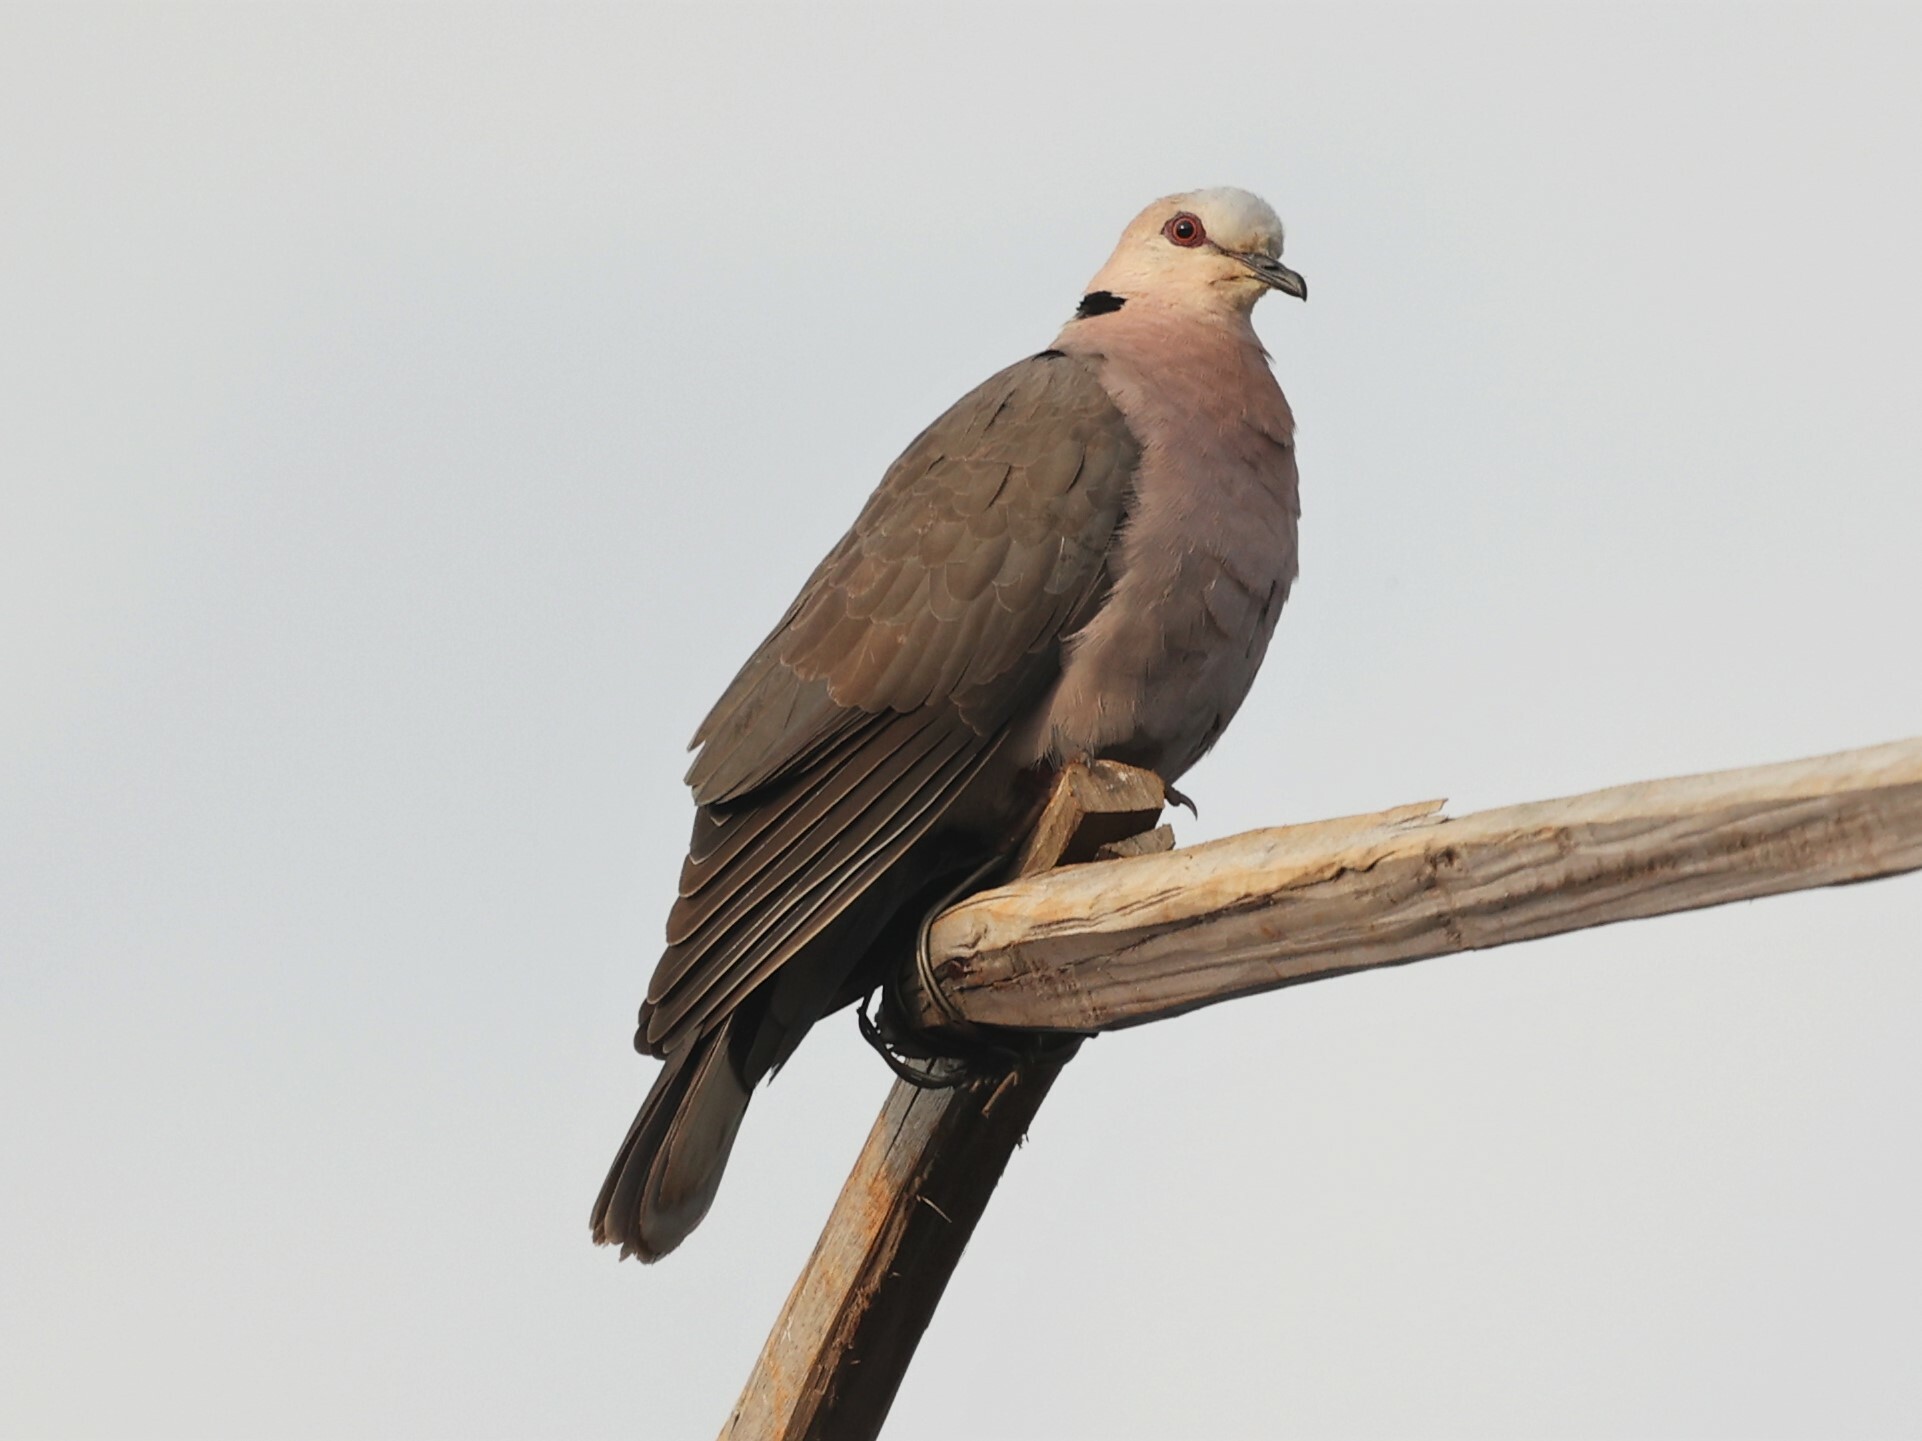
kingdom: Animalia
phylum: Chordata
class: Aves
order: Columbiformes
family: Columbidae
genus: Streptopelia
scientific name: Streptopelia semitorquata
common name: Red-eyed dove
